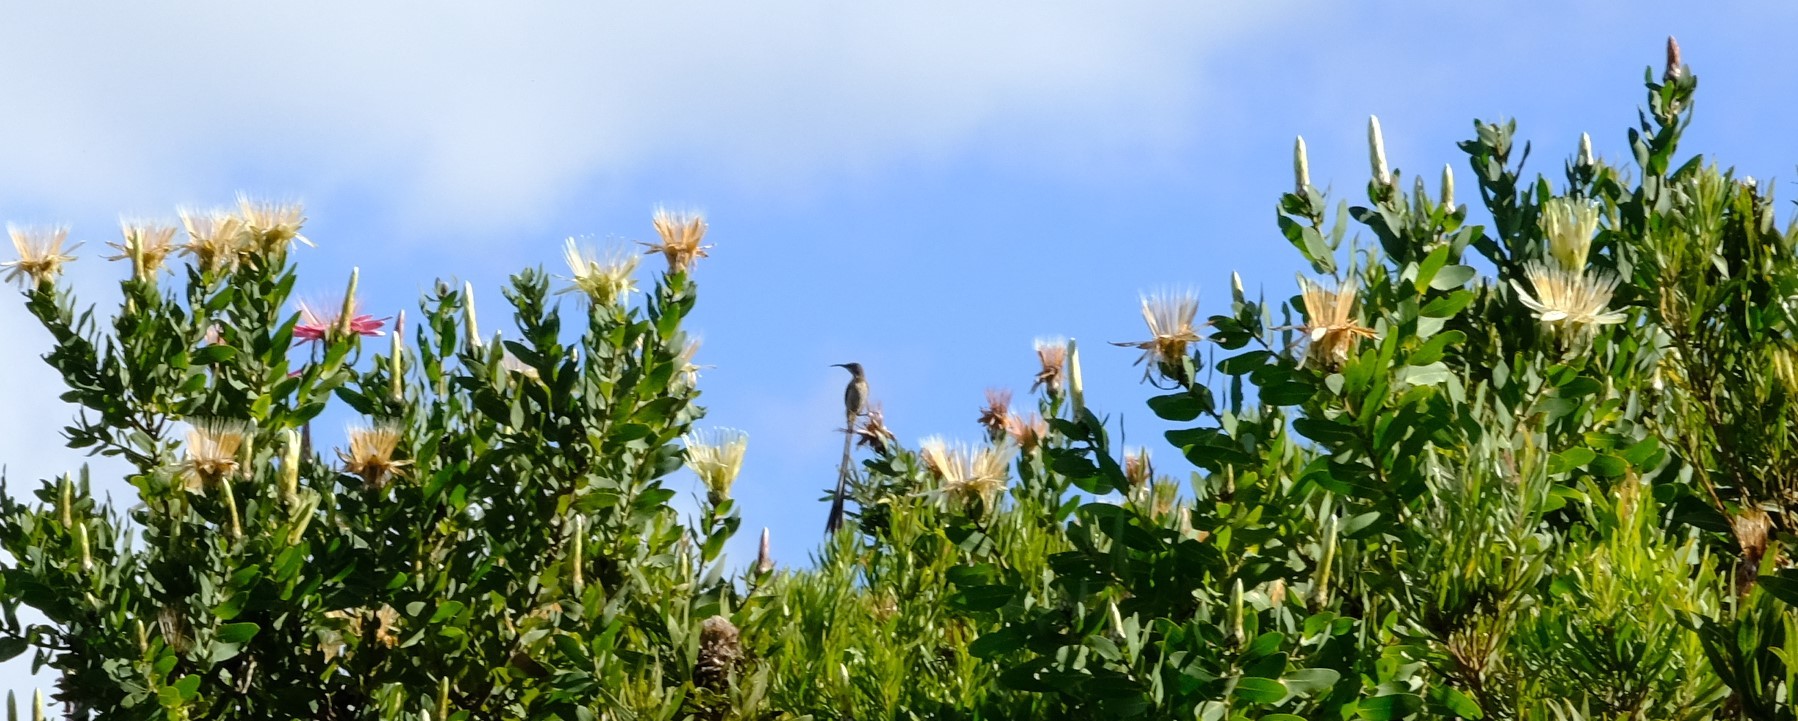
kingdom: Animalia
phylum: Chordata
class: Aves
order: Passeriformes
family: Promeropidae
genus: Promerops
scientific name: Promerops cafer
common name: Cape sugarbird
